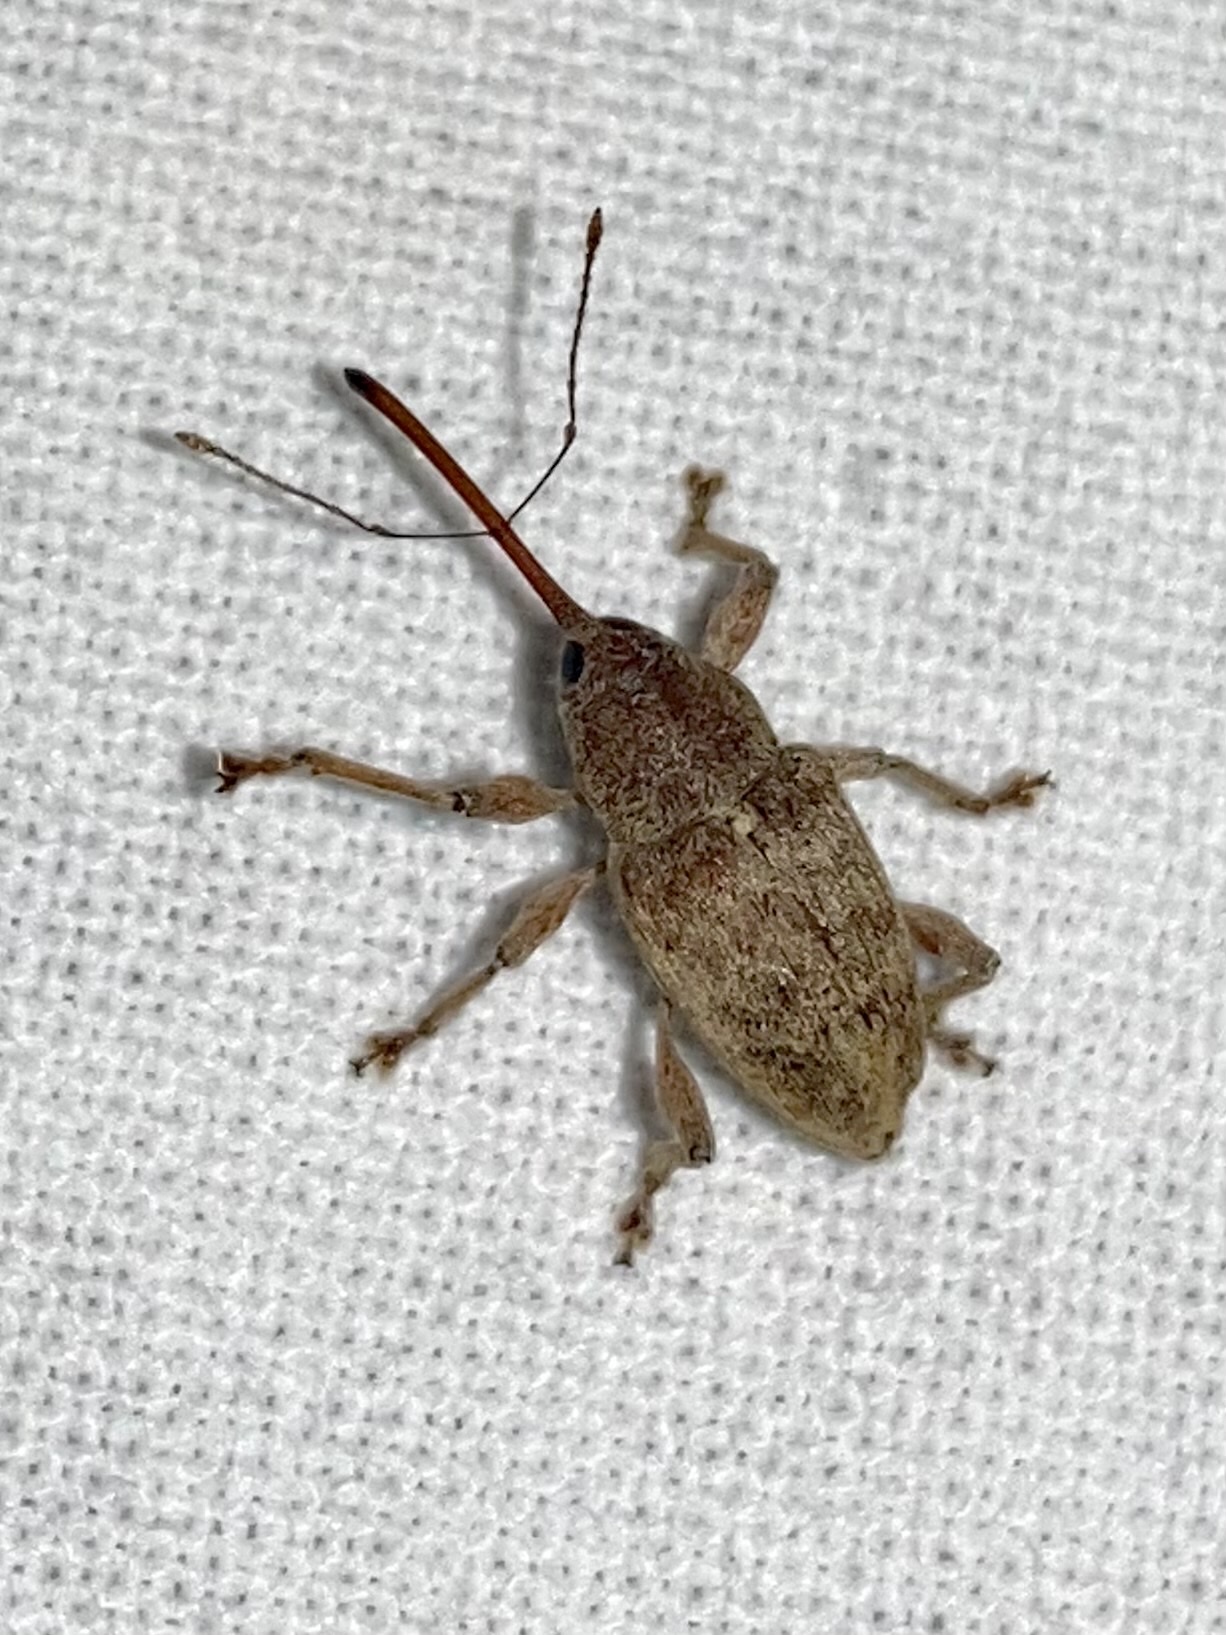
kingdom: Animalia
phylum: Arthropoda
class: Insecta
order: Coleoptera
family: Curculionidae
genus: Curculio
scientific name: Curculio propinquus
